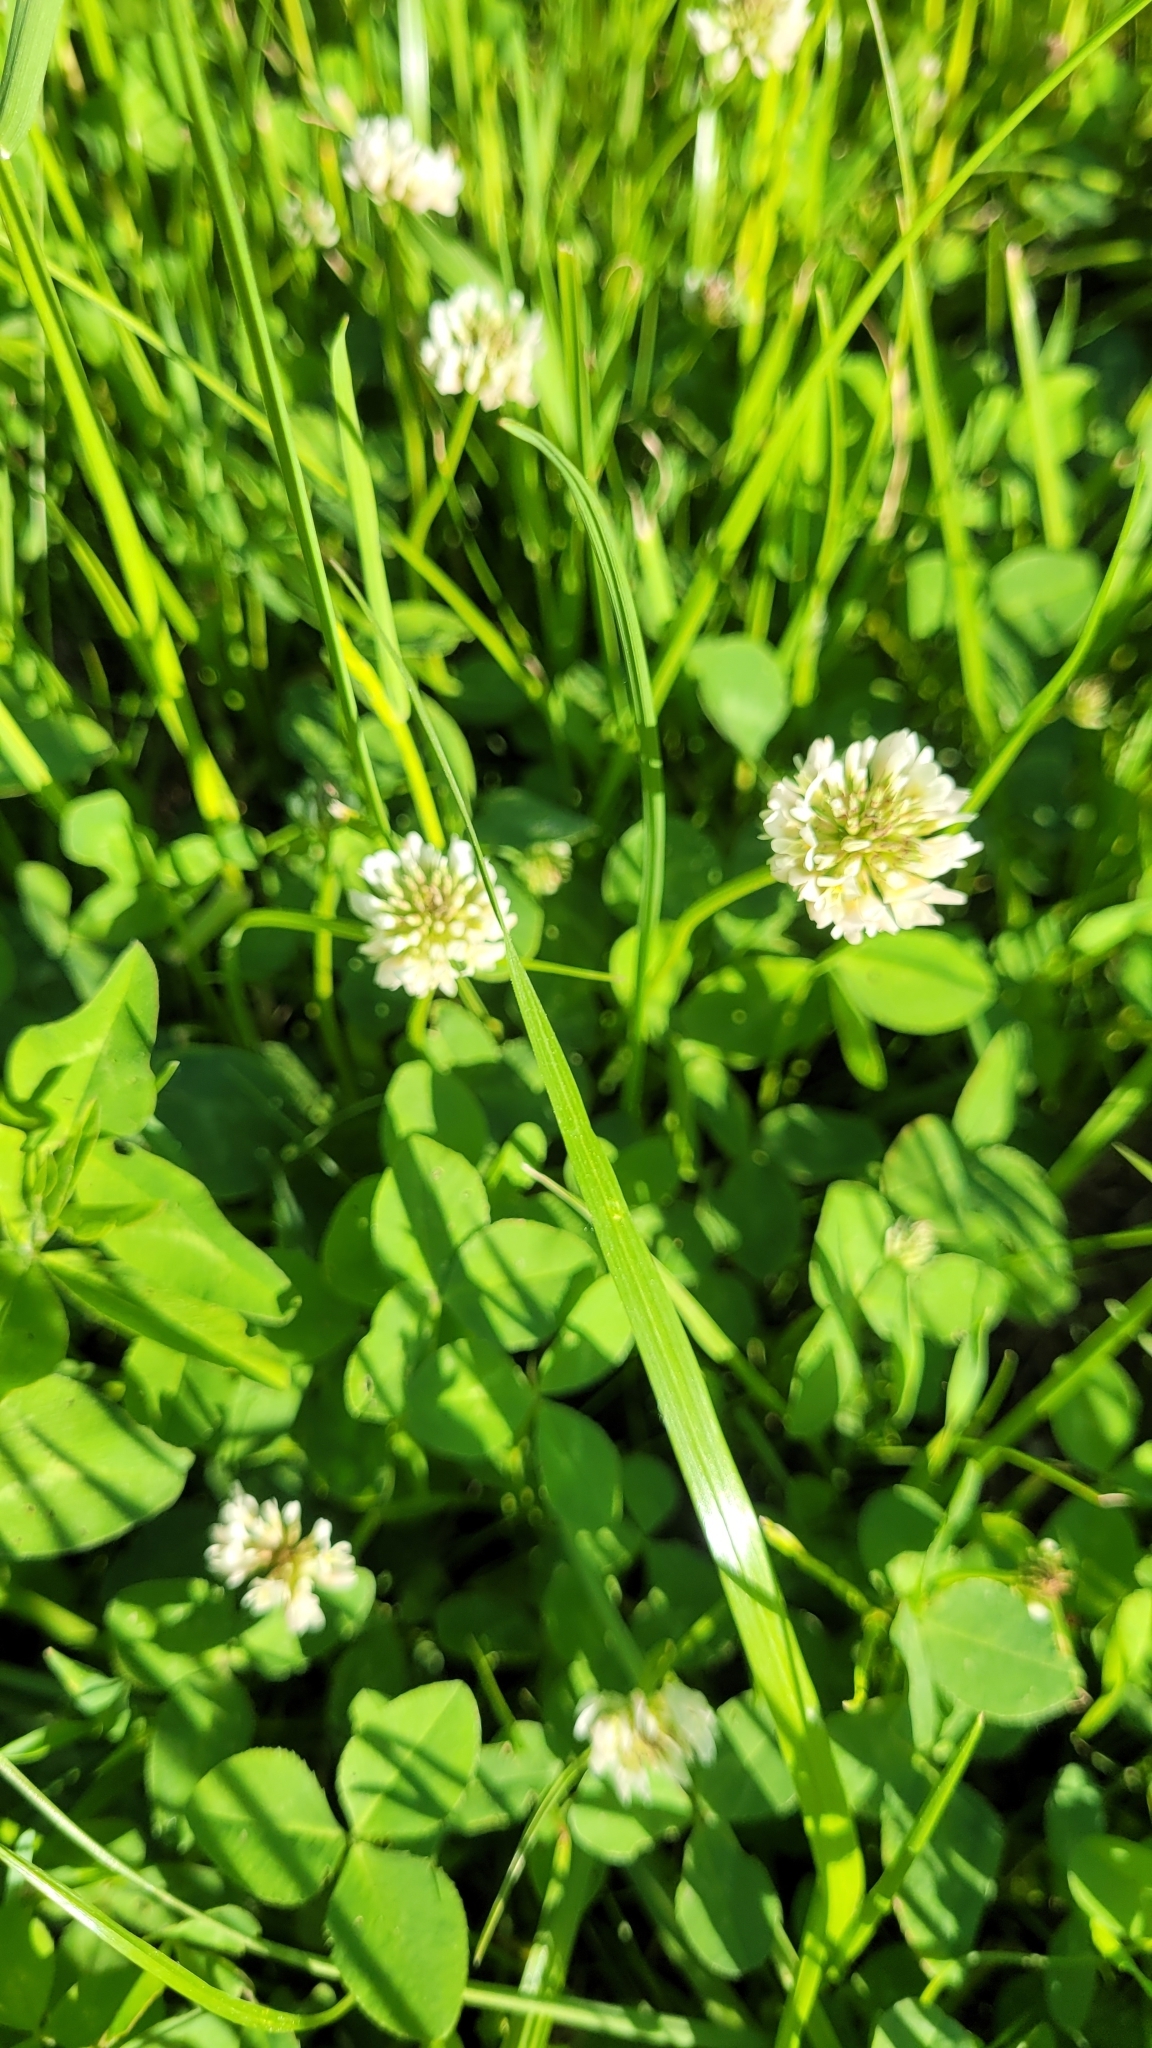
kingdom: Plantae
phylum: Tracheophyta
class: Magnoliopsida
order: Fabales
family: Fabaceae
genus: Trifolium
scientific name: Trifolium repens
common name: White clover
